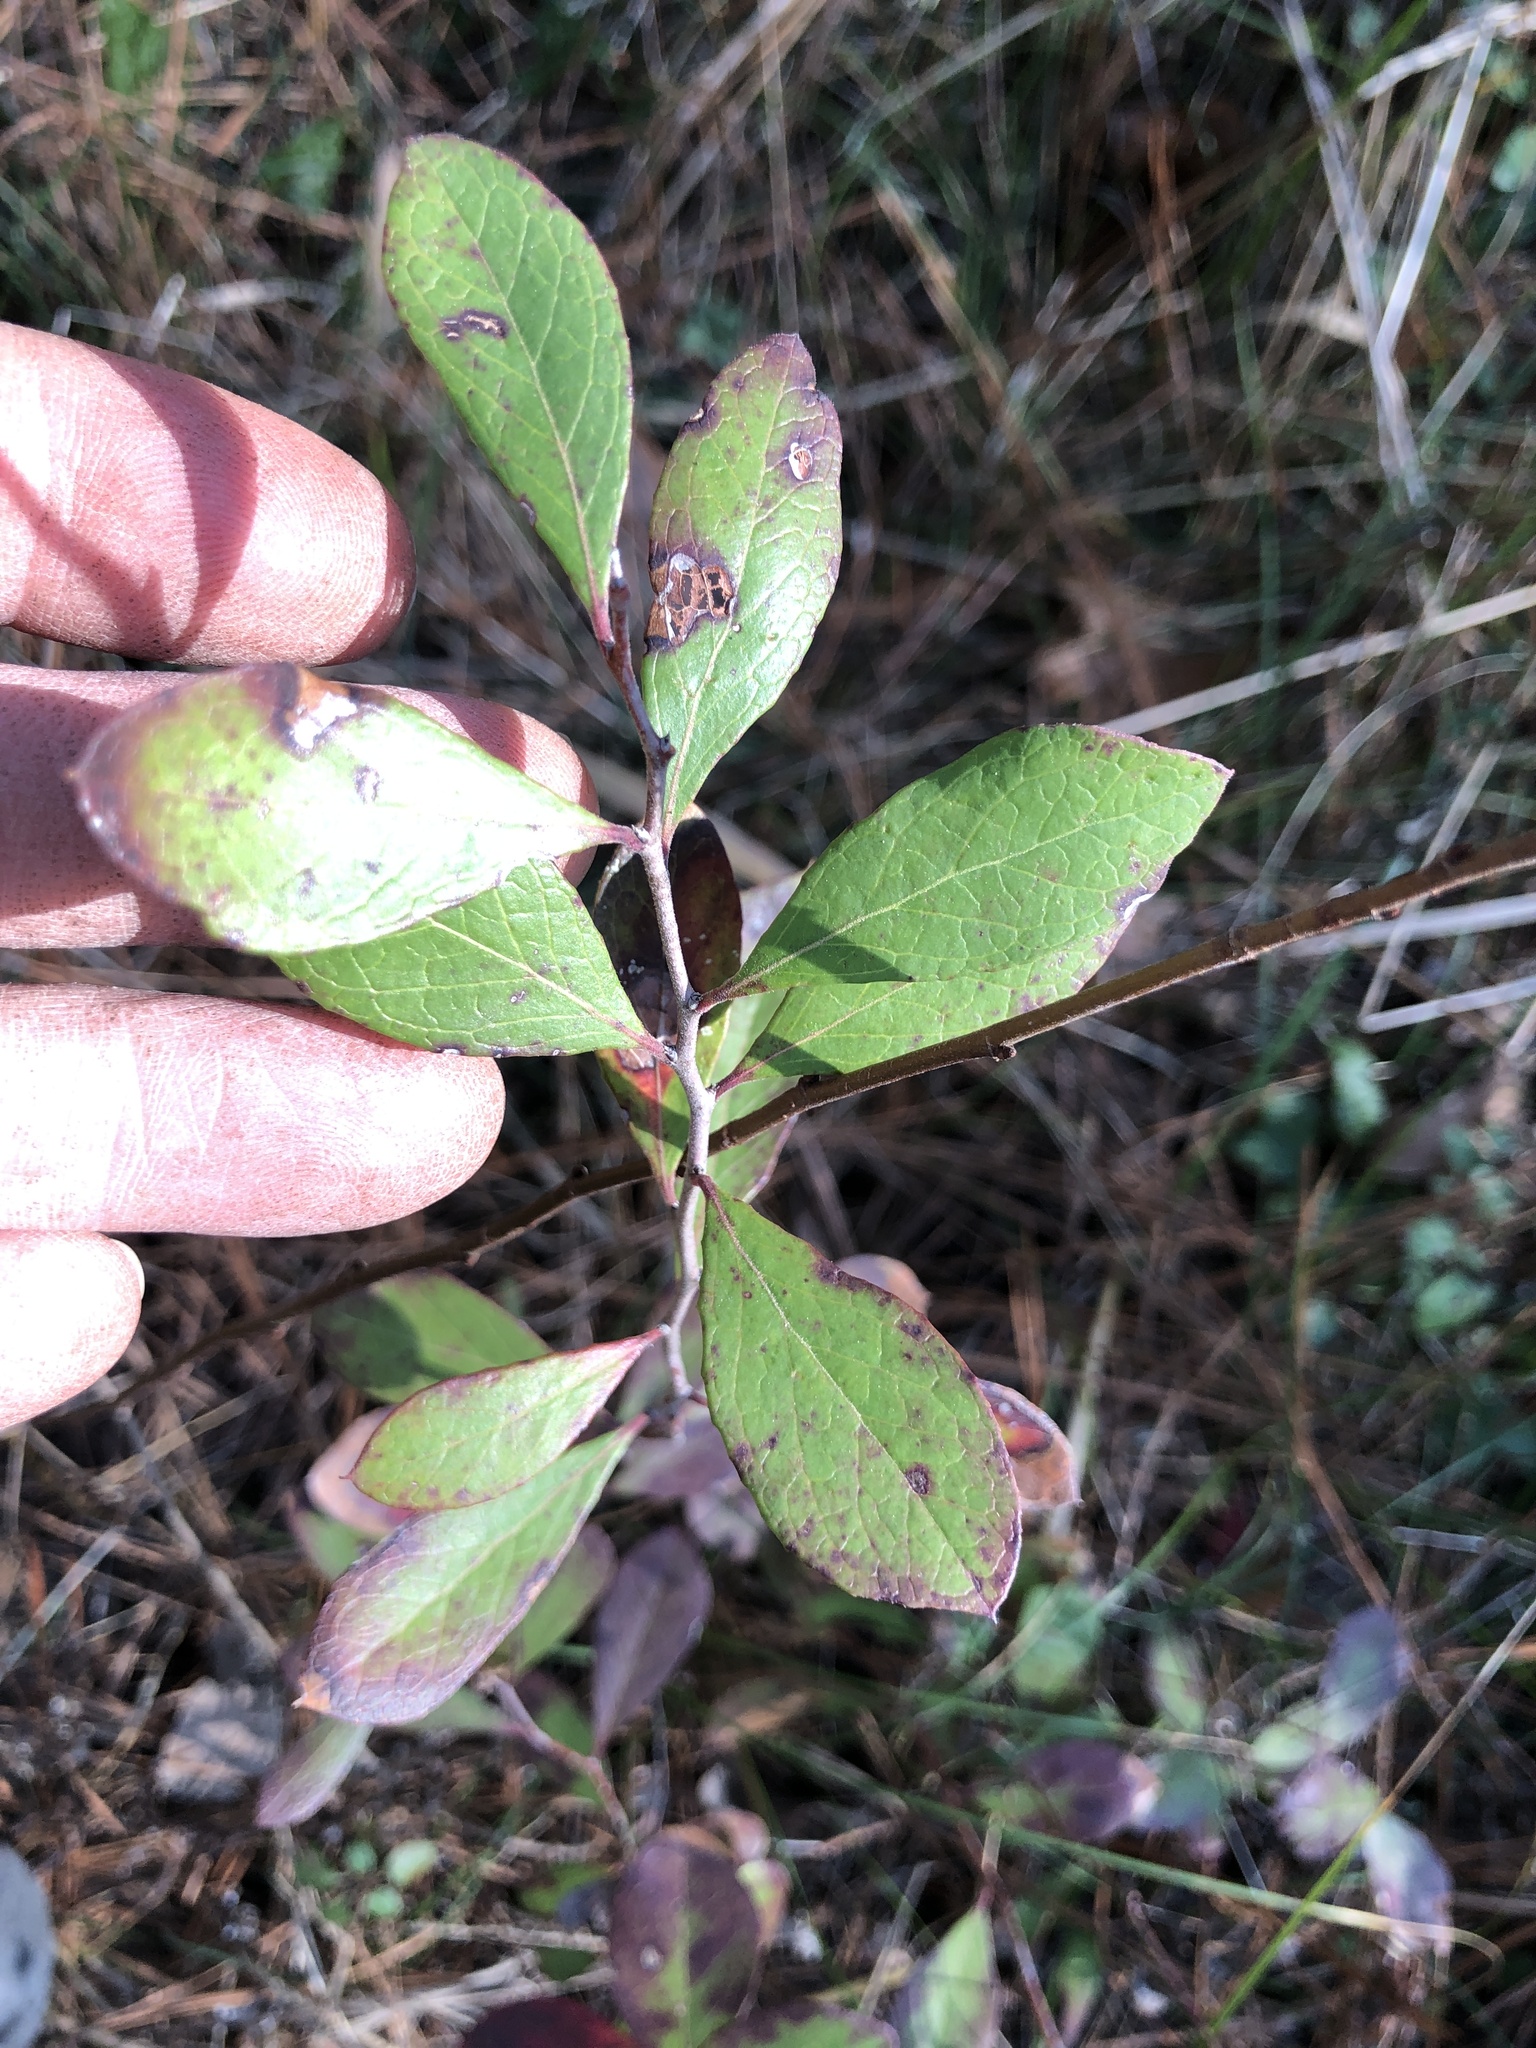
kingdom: Plantae
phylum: Tracheophyta
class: Magnoliopsida
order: Ericales
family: Ericaceae
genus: Vaccinium
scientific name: Vaccinium arboreum
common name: Farkleberry
